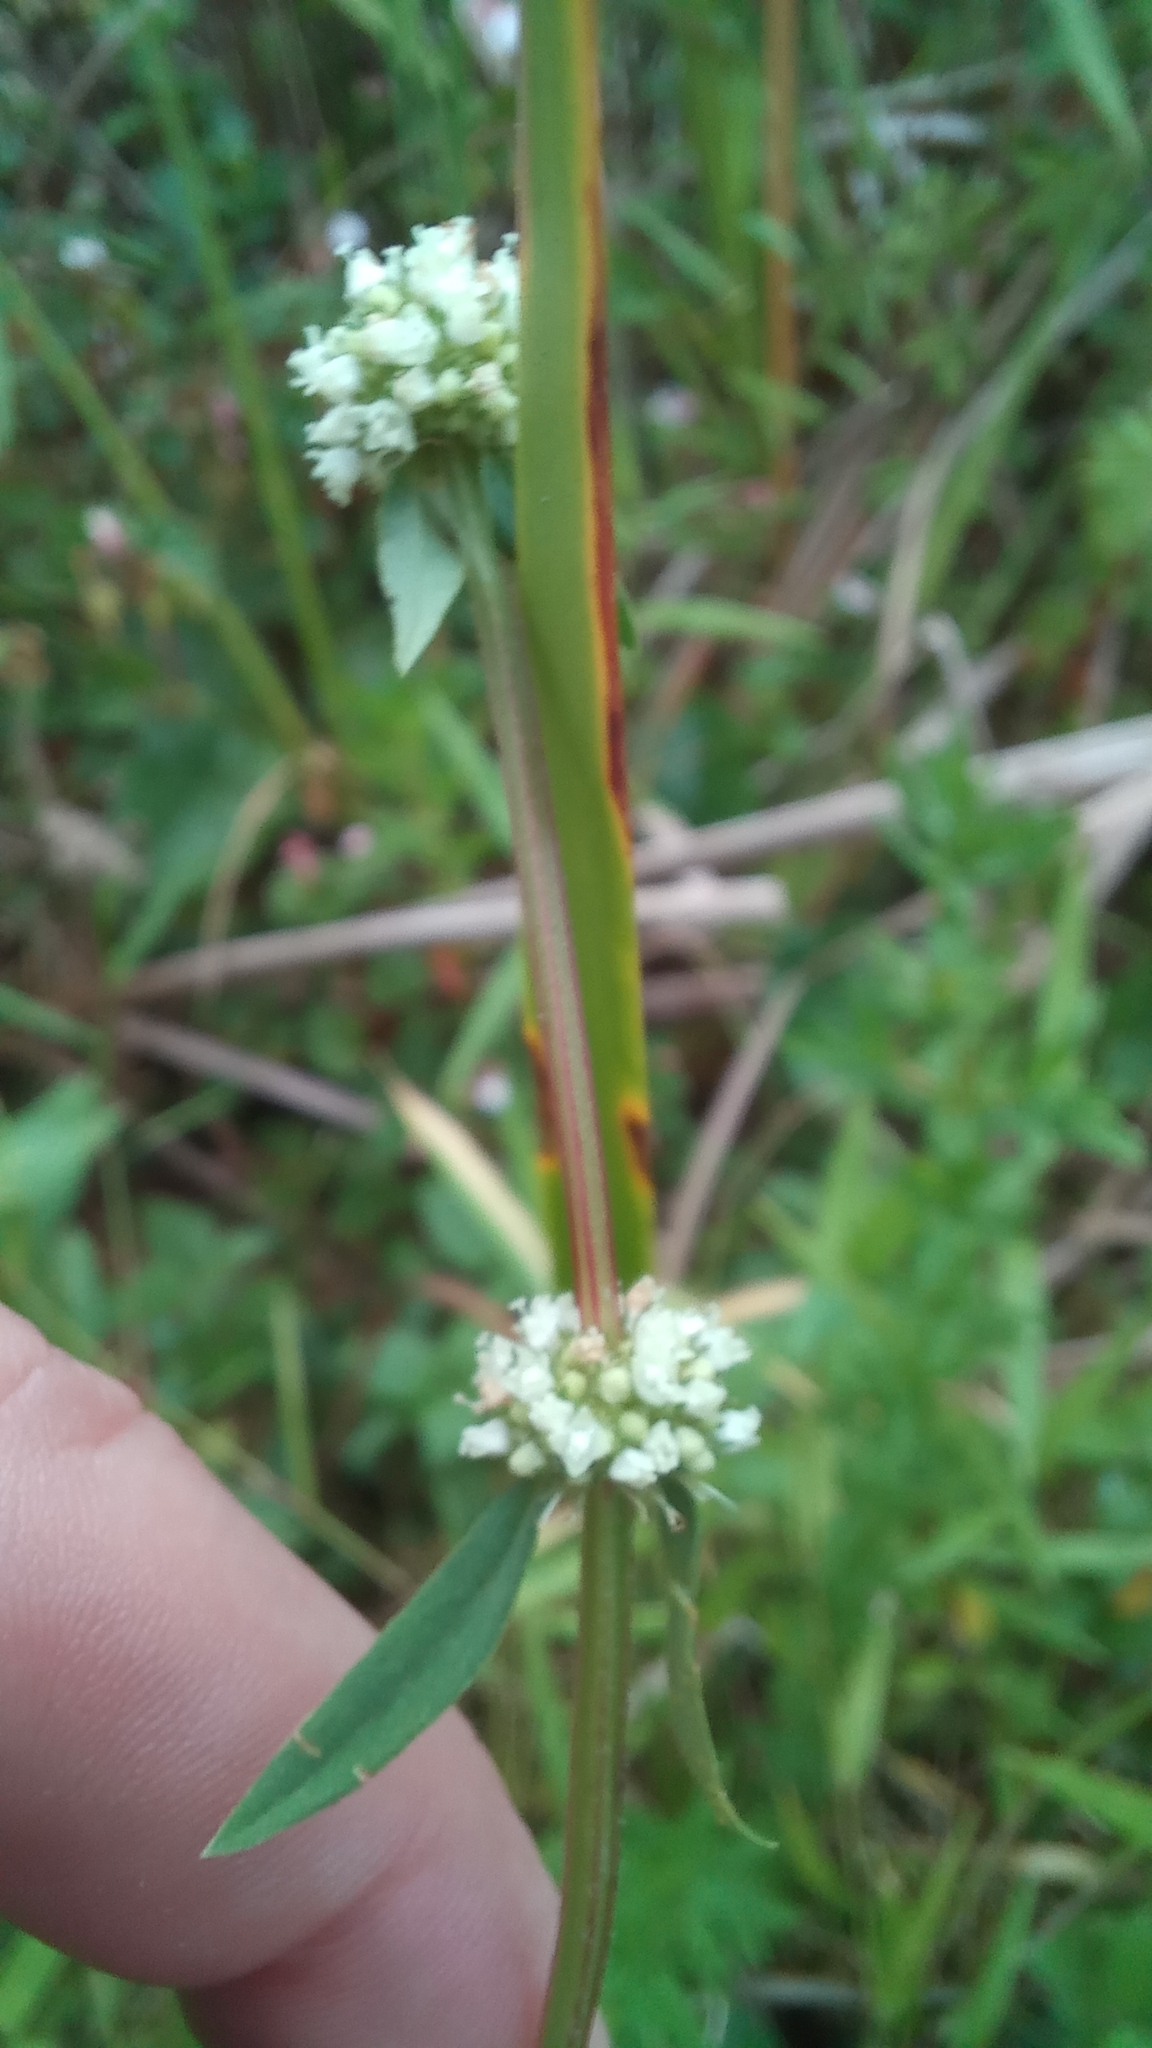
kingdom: Plantae
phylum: Tracheophyta
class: Magnoliopsida
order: Gentianales
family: Rubiaceae
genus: Spermacoce
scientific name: Spermacoce verticillata
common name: Shrubby false buttonweed
